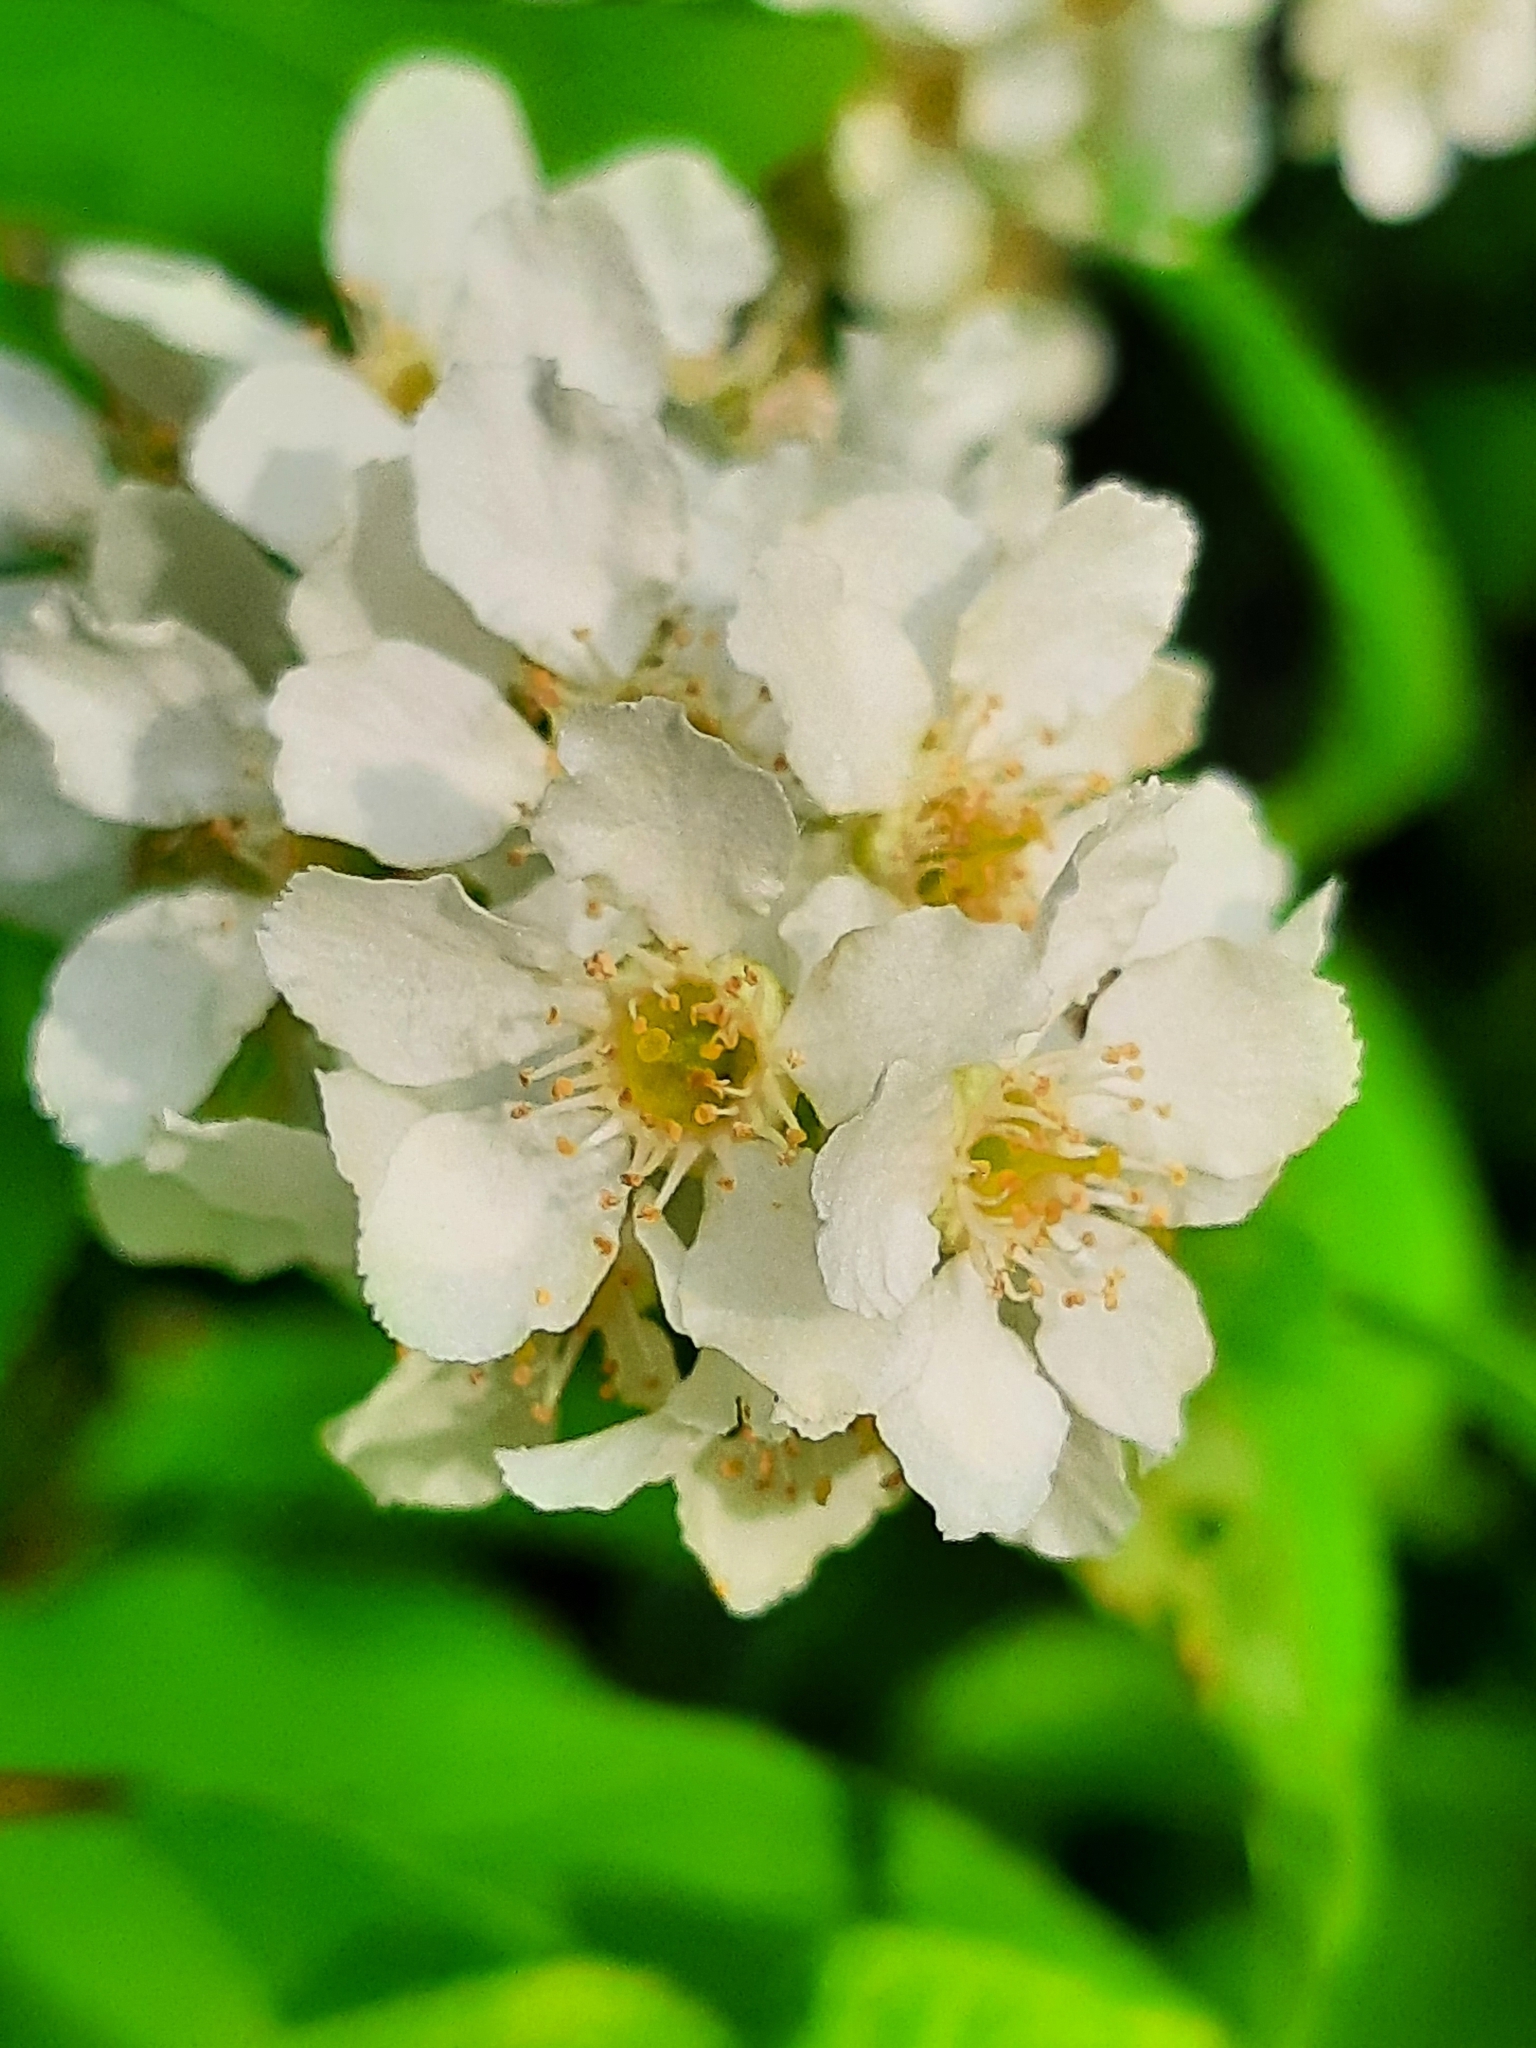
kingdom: Plantae
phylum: Tracheophyta
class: Magnoliopsida
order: Rosales
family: Rosaceae
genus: Prunus
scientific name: Prunus padus
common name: Bird cherry
